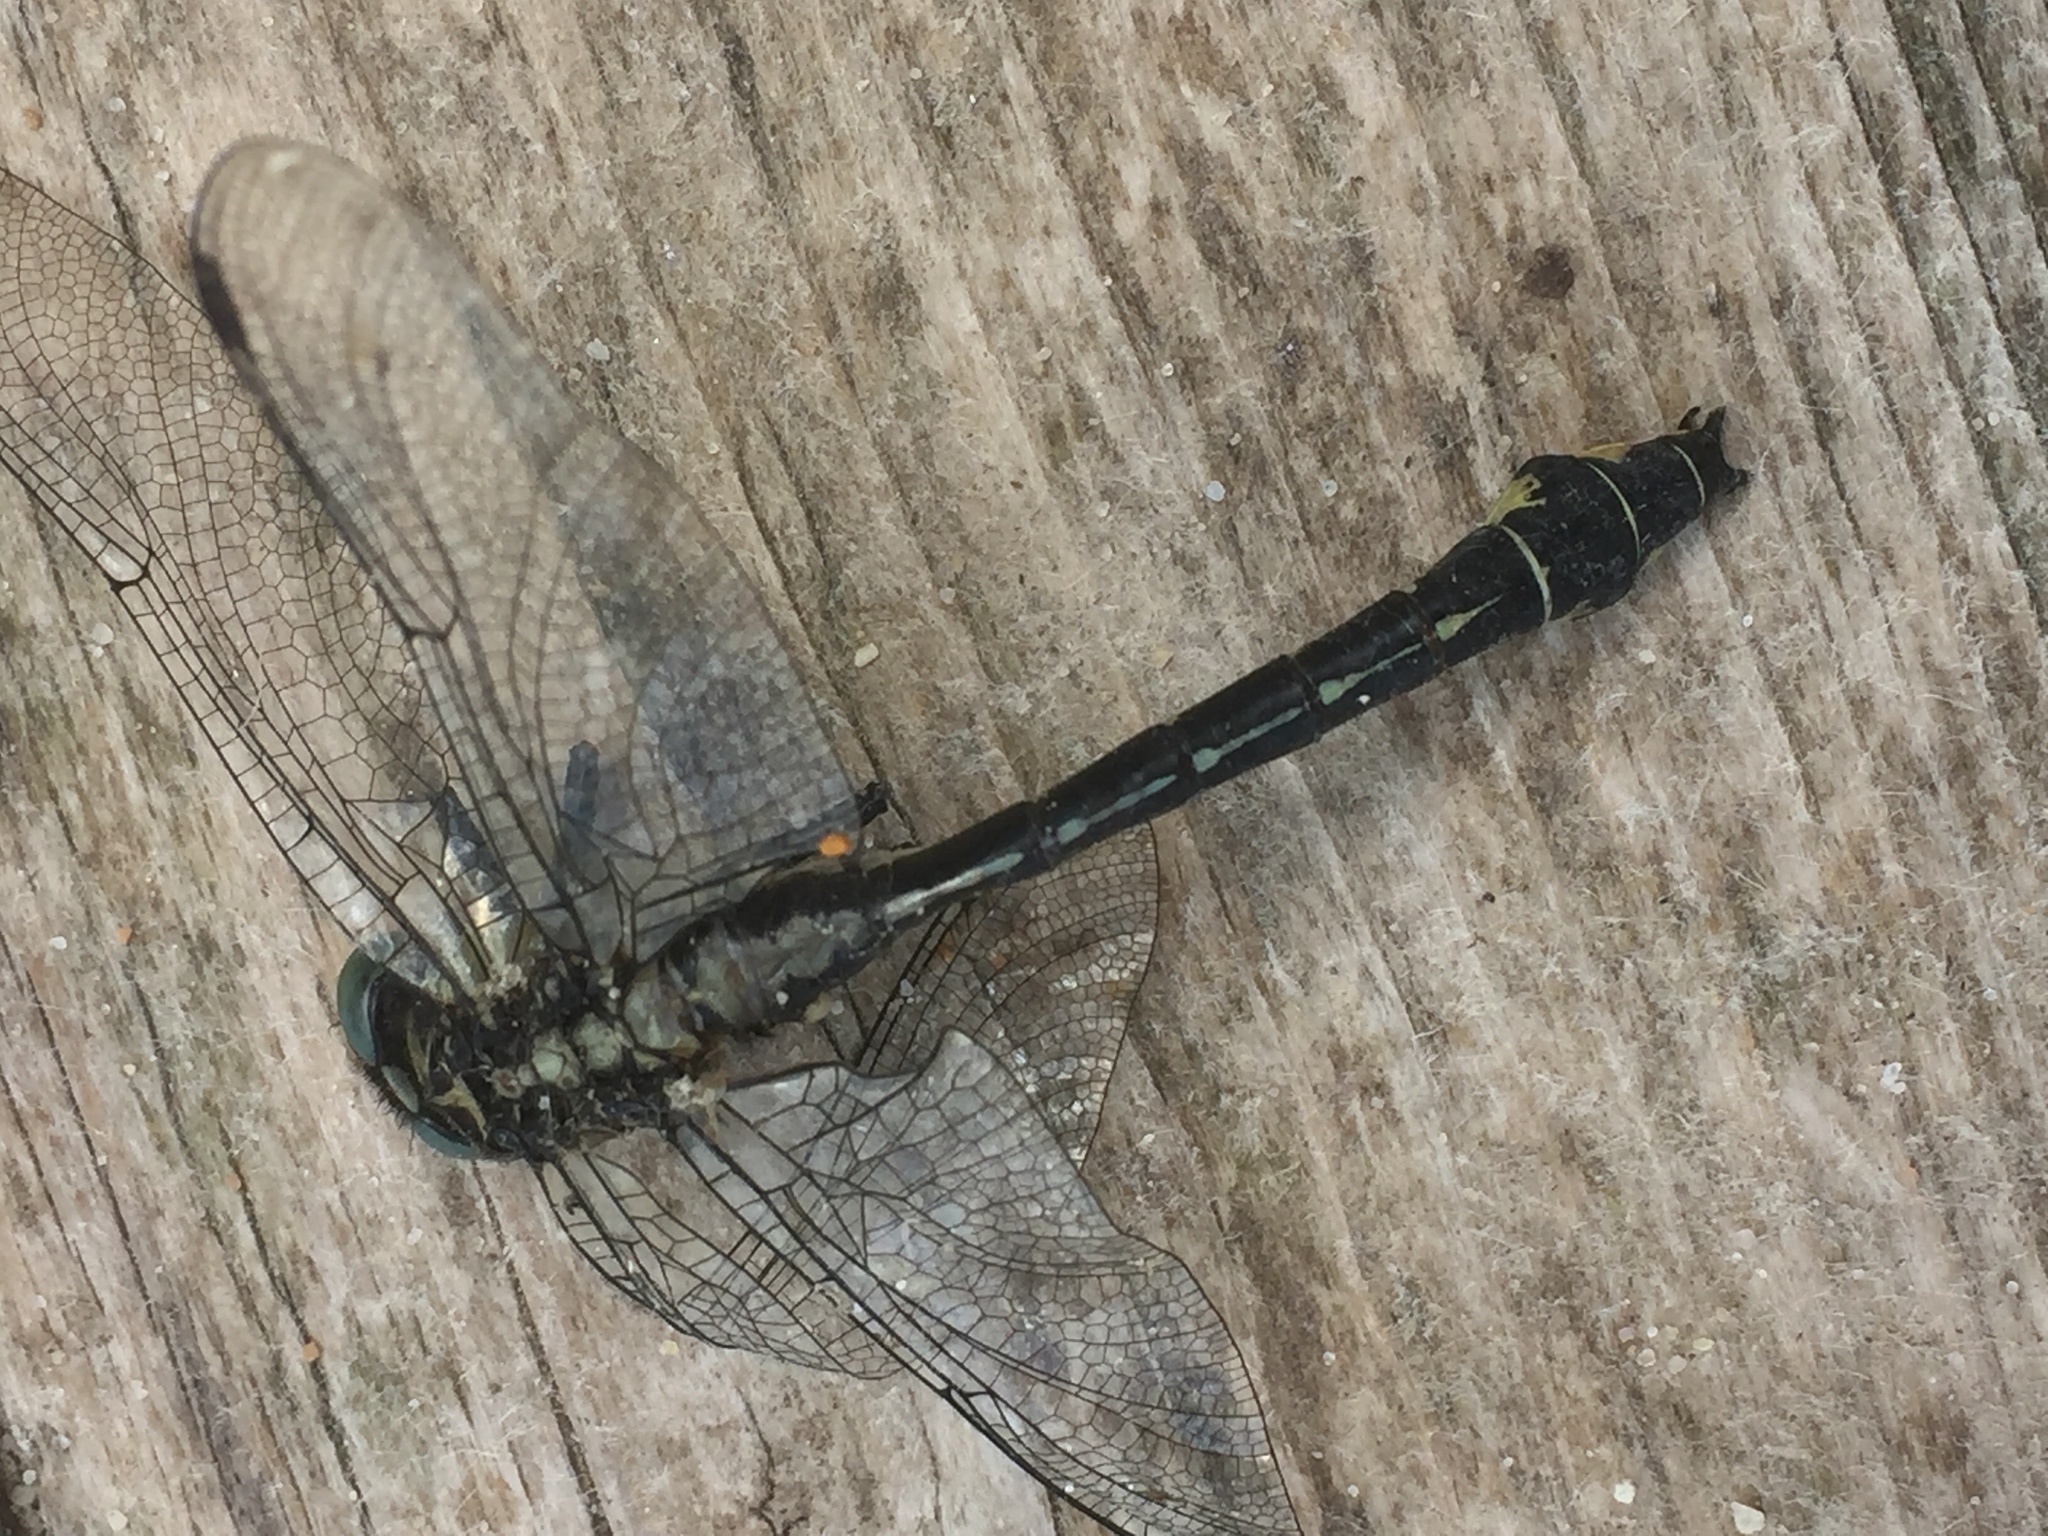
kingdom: Animalia
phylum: Arthropoda
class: Insecta
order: Odonata
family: Gomphidae
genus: Gomphus
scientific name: Gomphus vulgatissimus
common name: Club-tailed dragonfly
